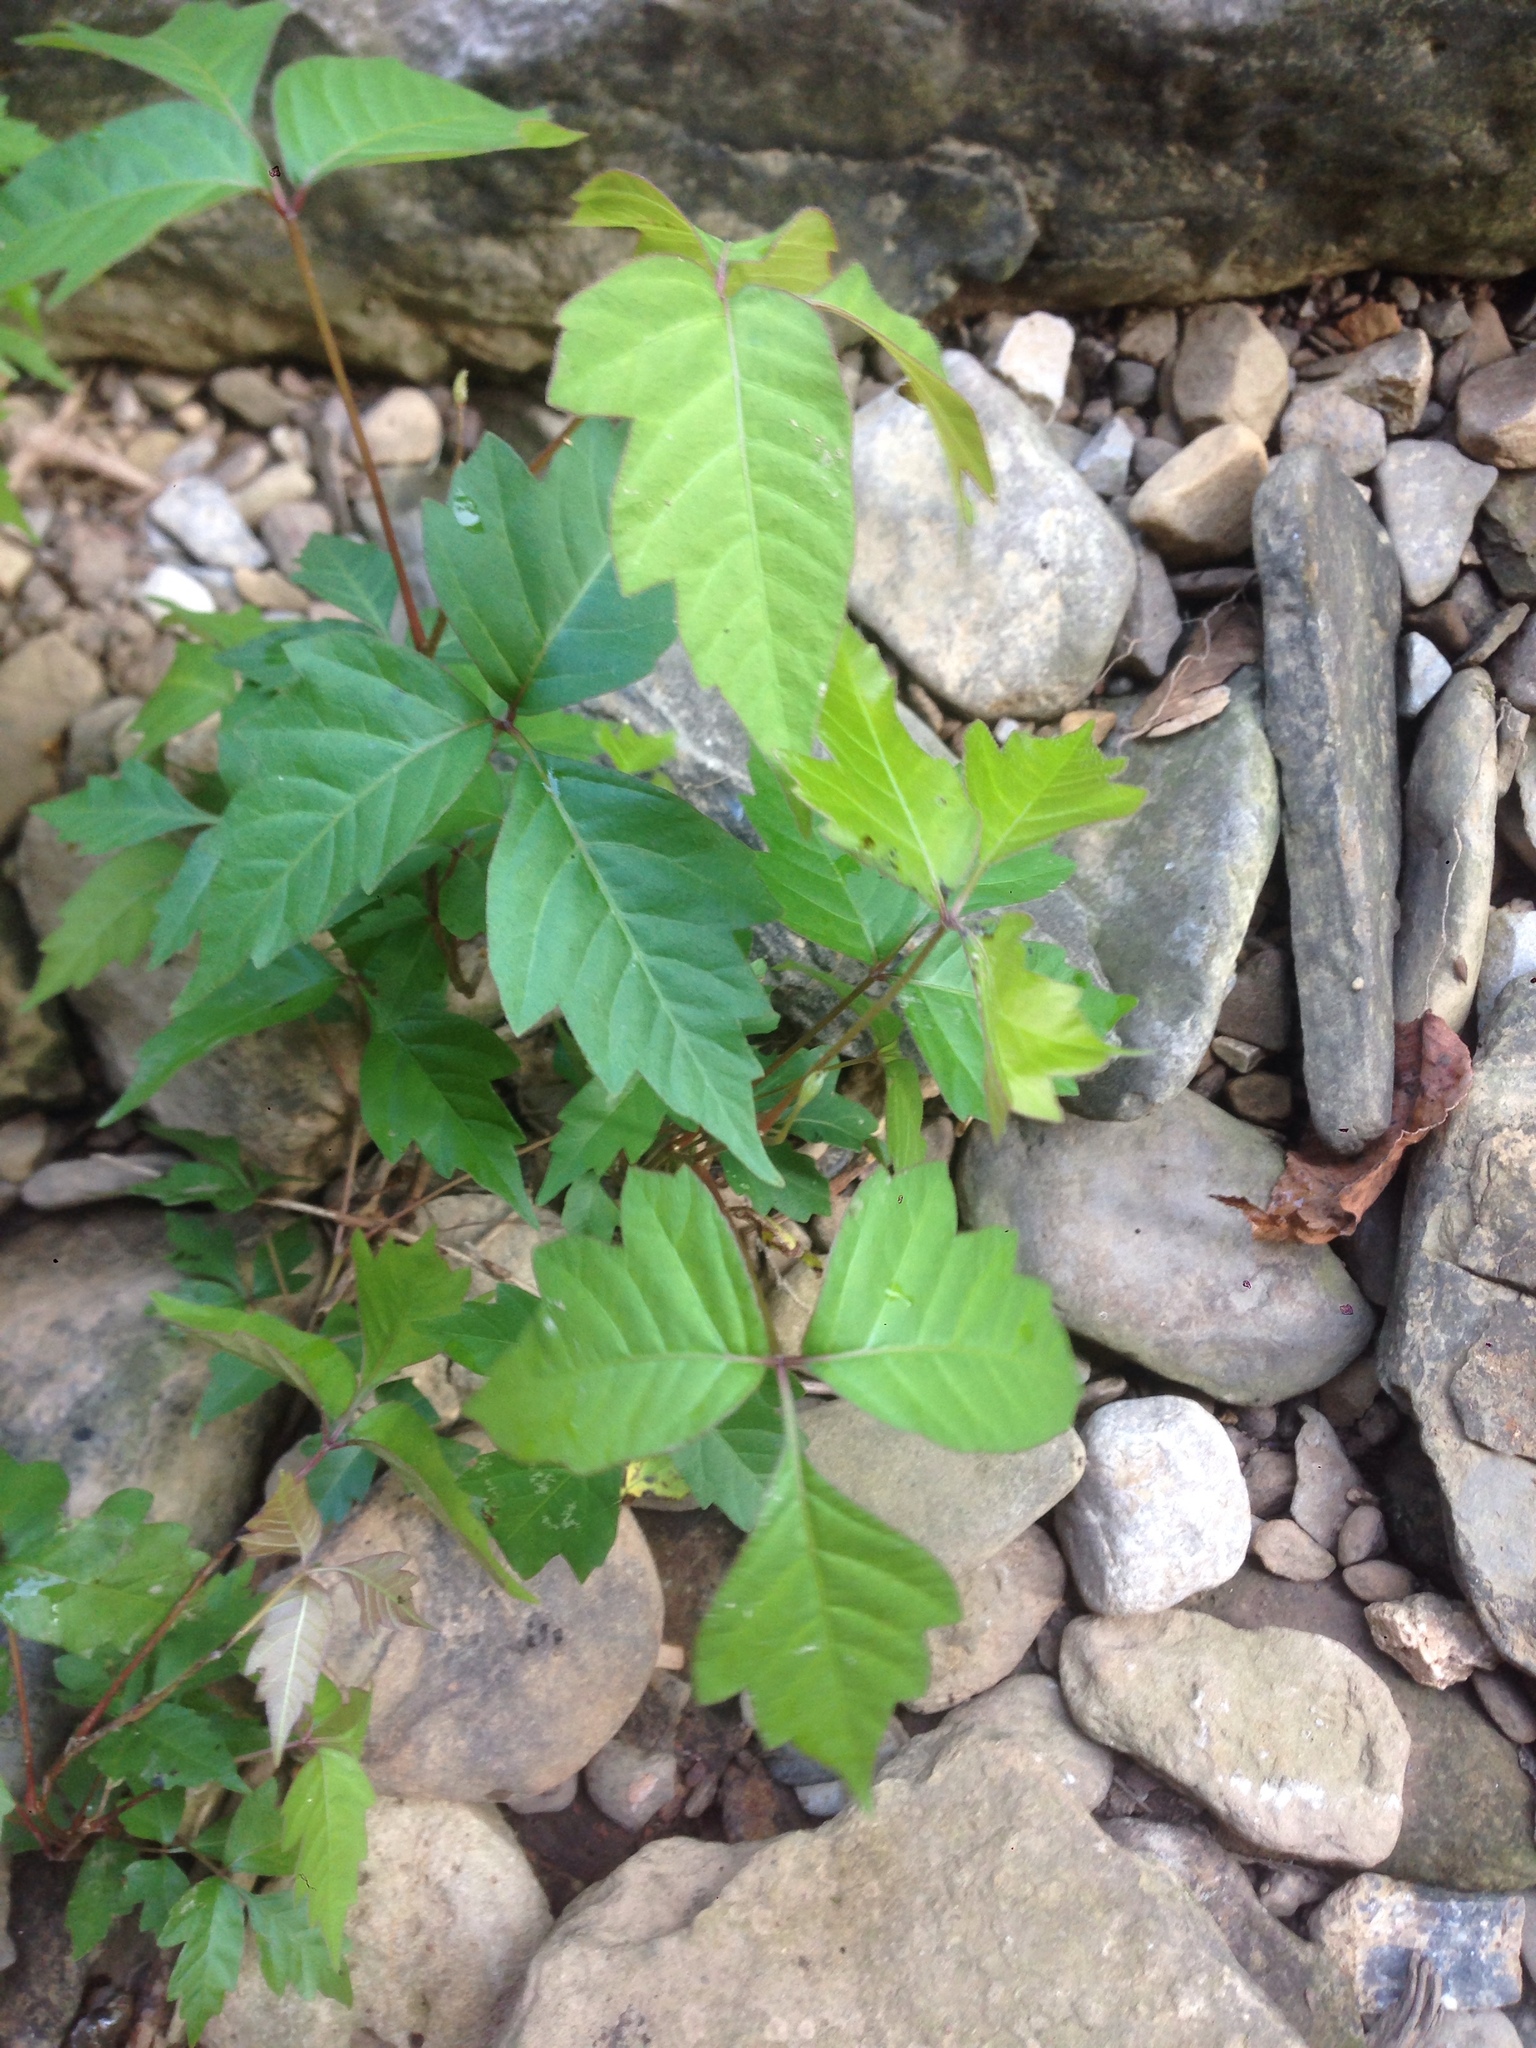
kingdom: Plantae
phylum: Tracheophyta
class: Magnoliopsida
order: Sapindales
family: Anacardiaceae
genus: Toxicodendron
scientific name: Toxicodendron radicans
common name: Poison ivy
